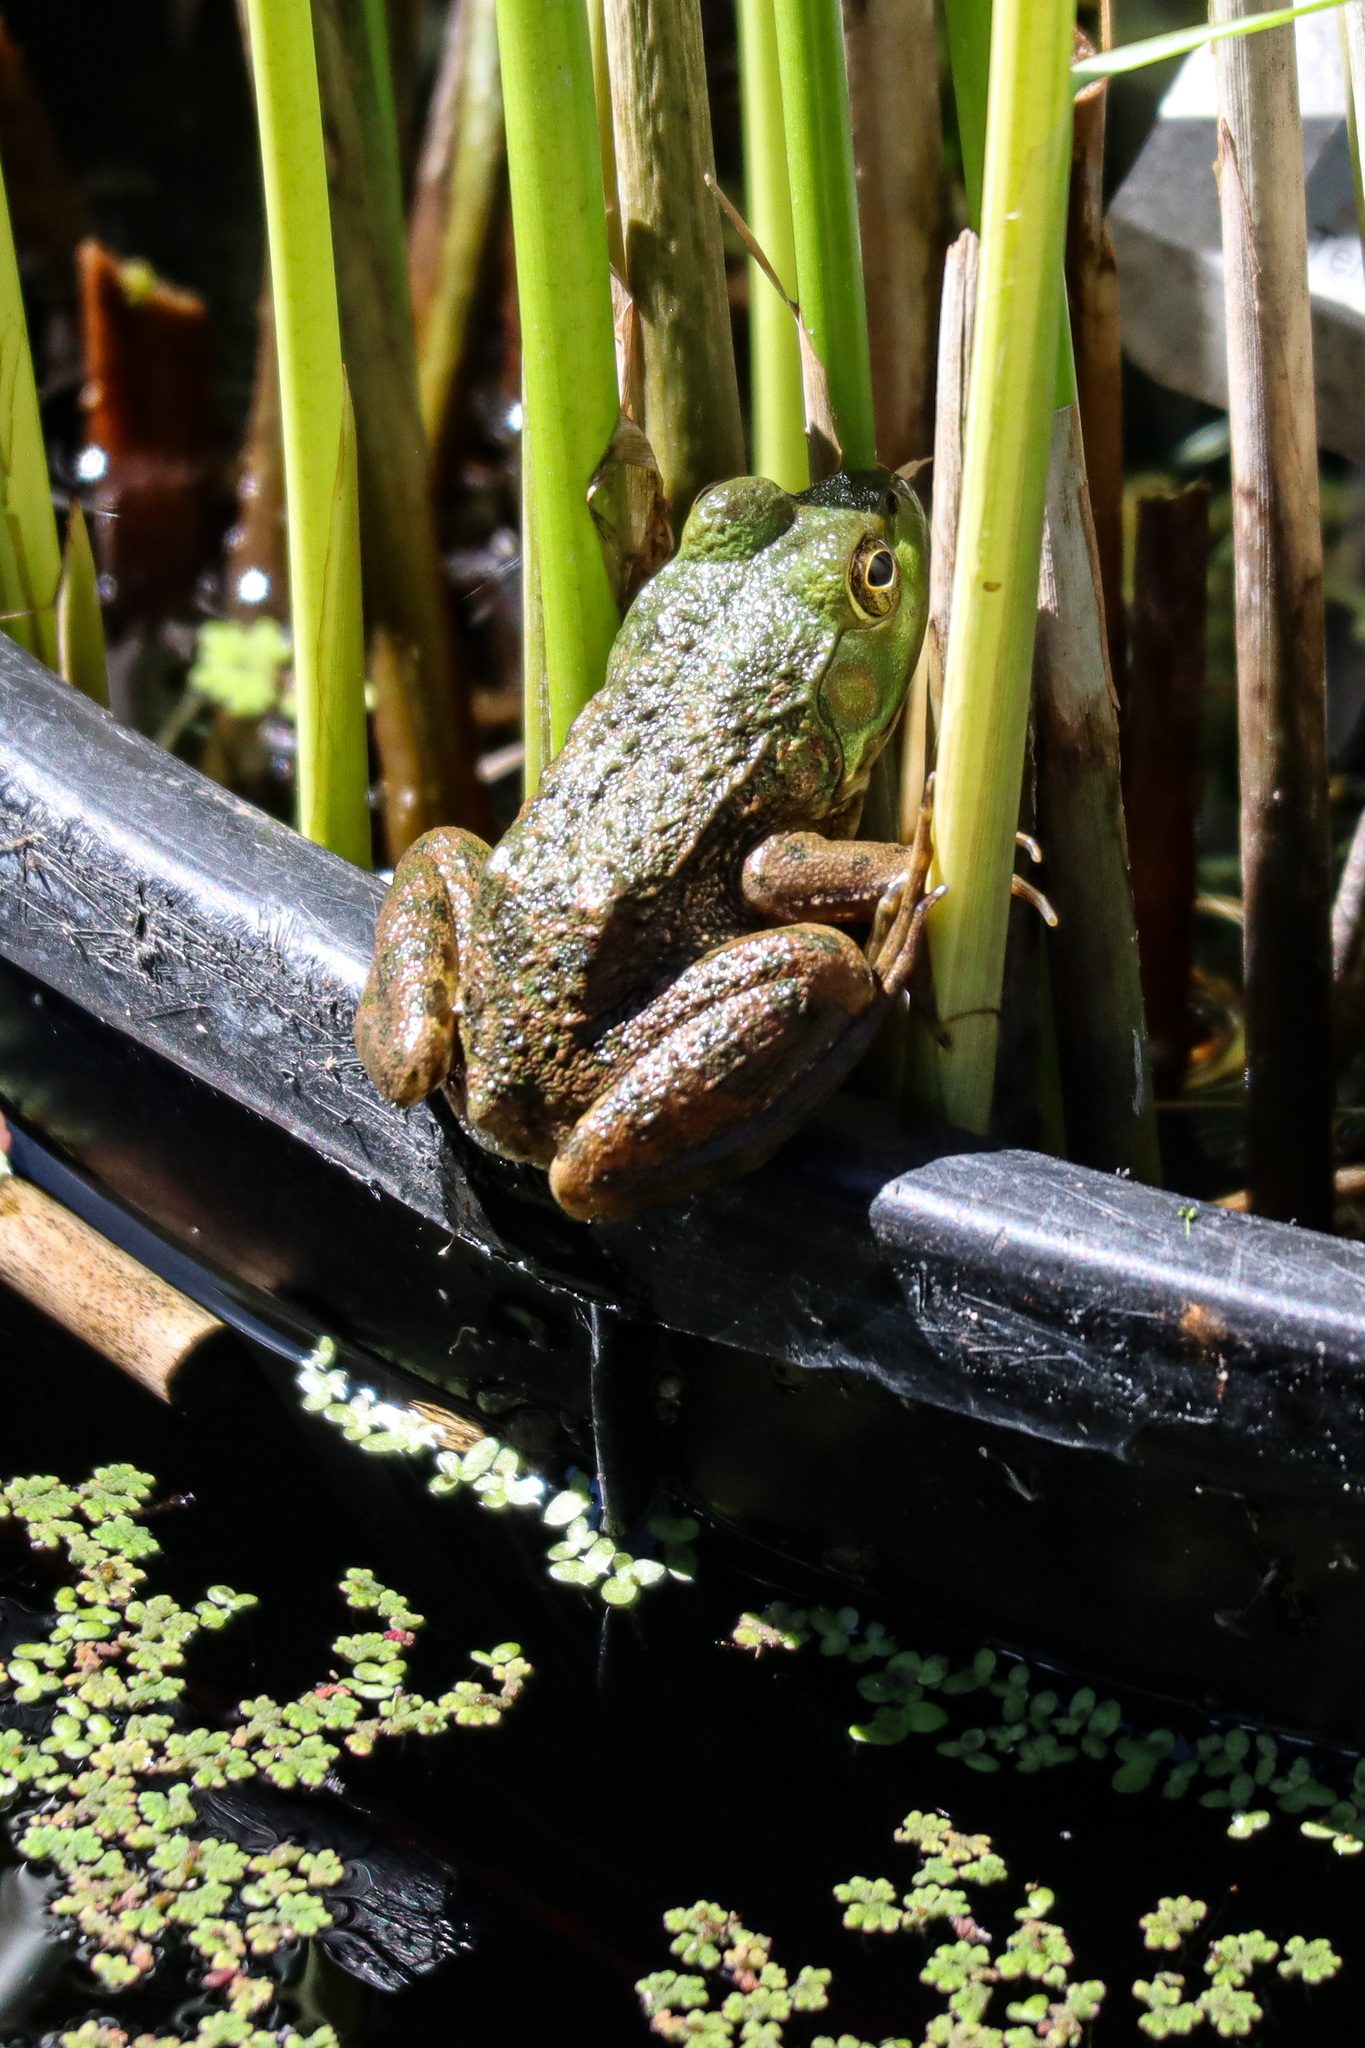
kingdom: Animalia
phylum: Chordata
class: Amphibia
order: Anura
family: Ranidae
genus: Lithobates
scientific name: Lithobates catesbeianus
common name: American bullfrog
